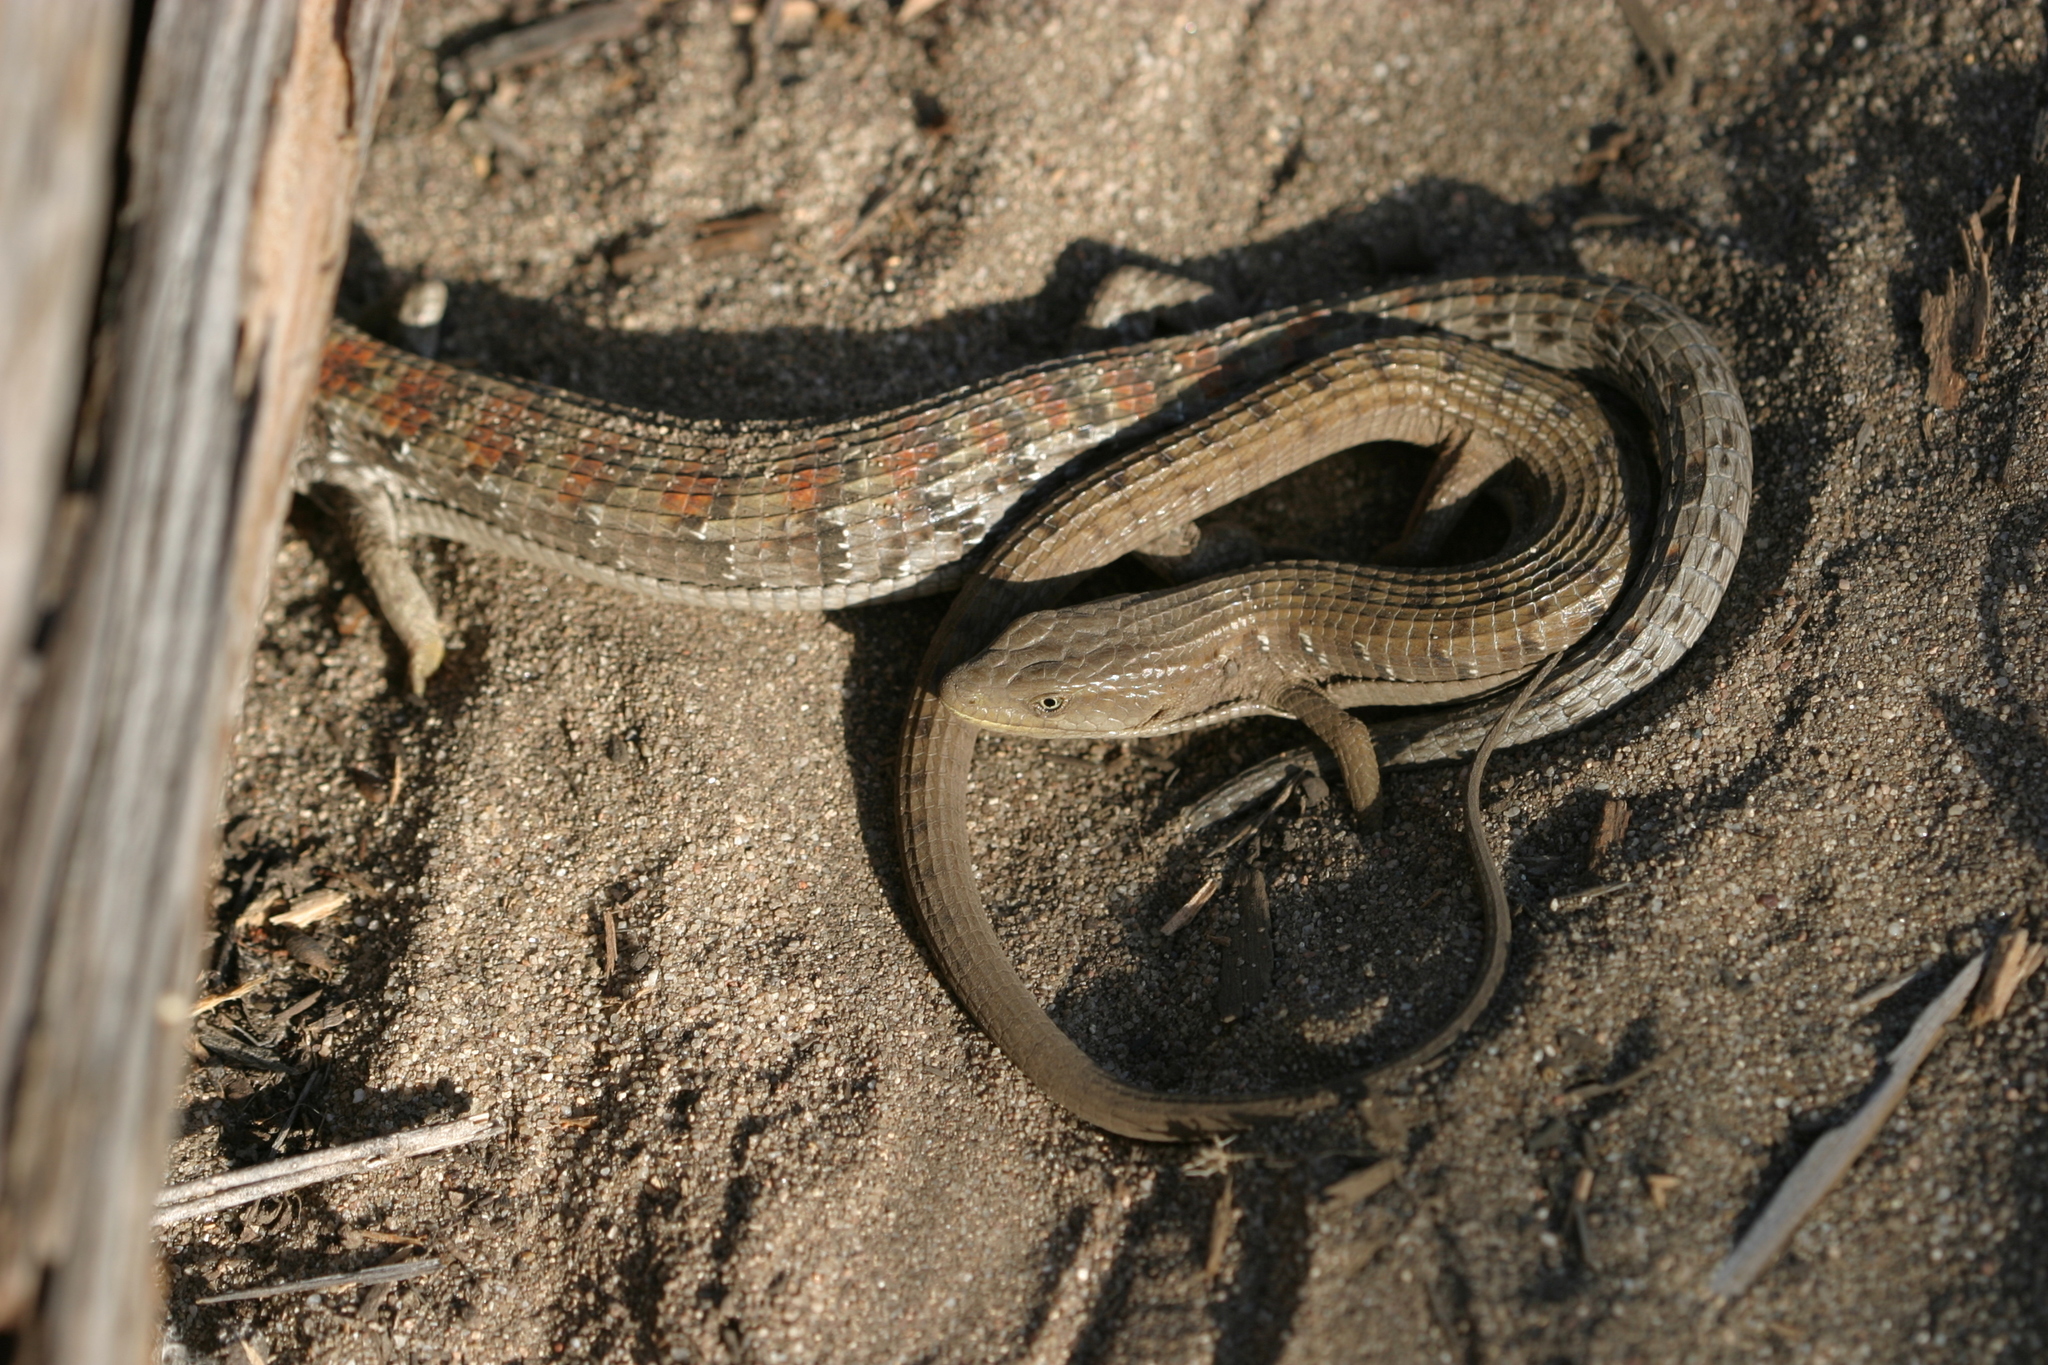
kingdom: Animalia
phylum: Chordata
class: Squamata
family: Anguidae
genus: Elgaria
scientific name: Elgaria multicarinata
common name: Southern alligator lizard
